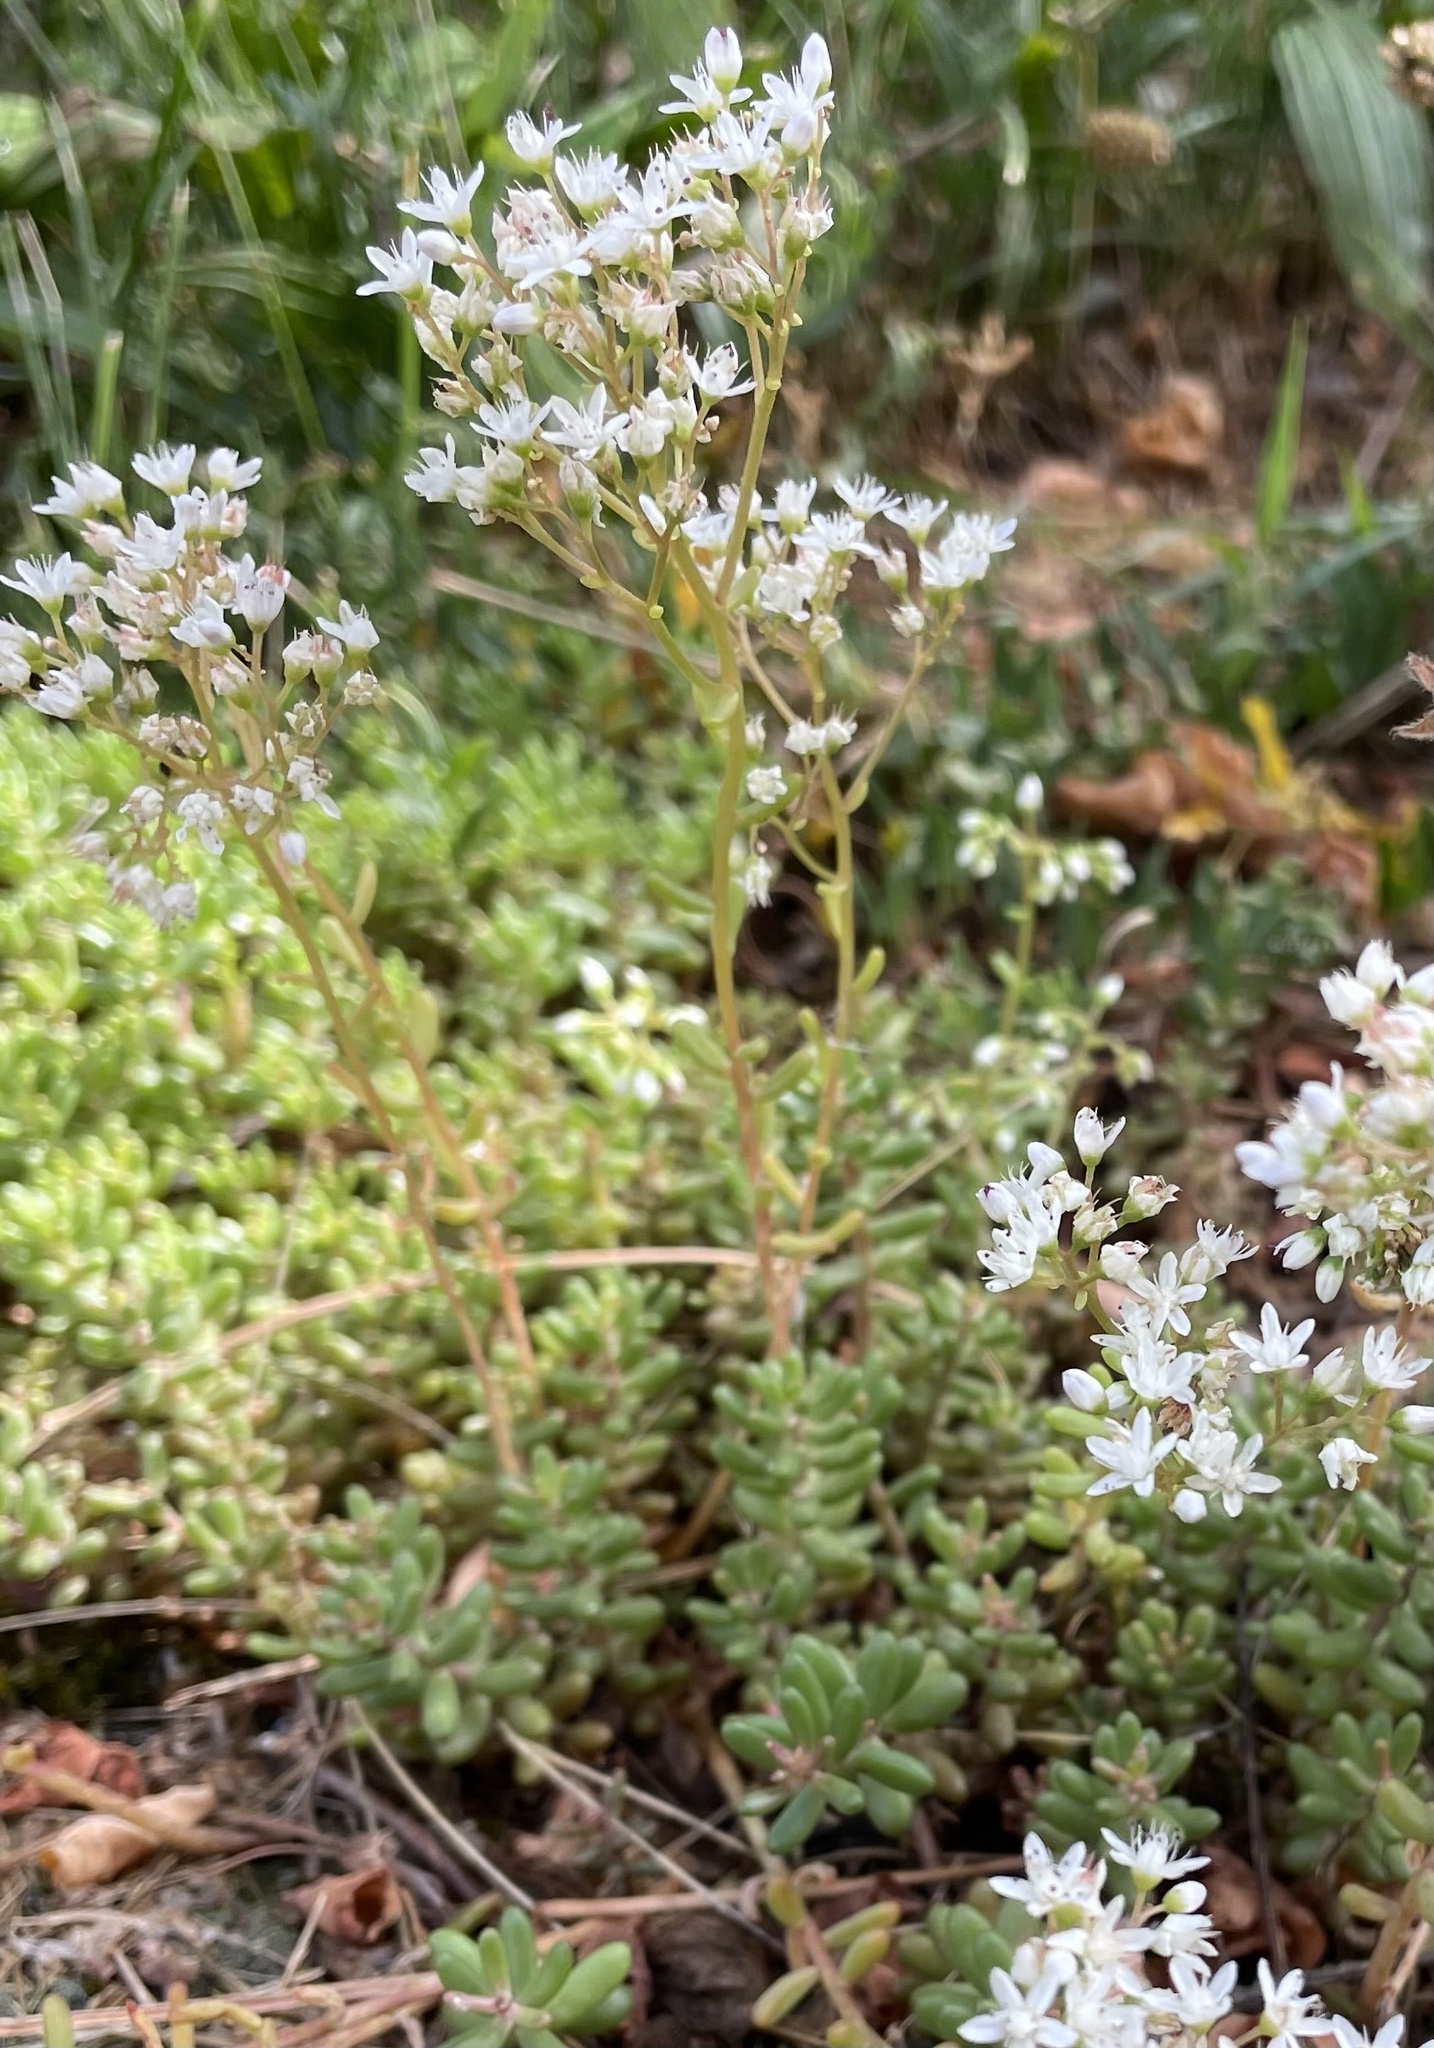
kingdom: Plantae
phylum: Tracheophyta
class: Magnoliopsida
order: Saxifragales
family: Crassulaceae
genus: Sedum
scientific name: Sedum album
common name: White stonecrop
